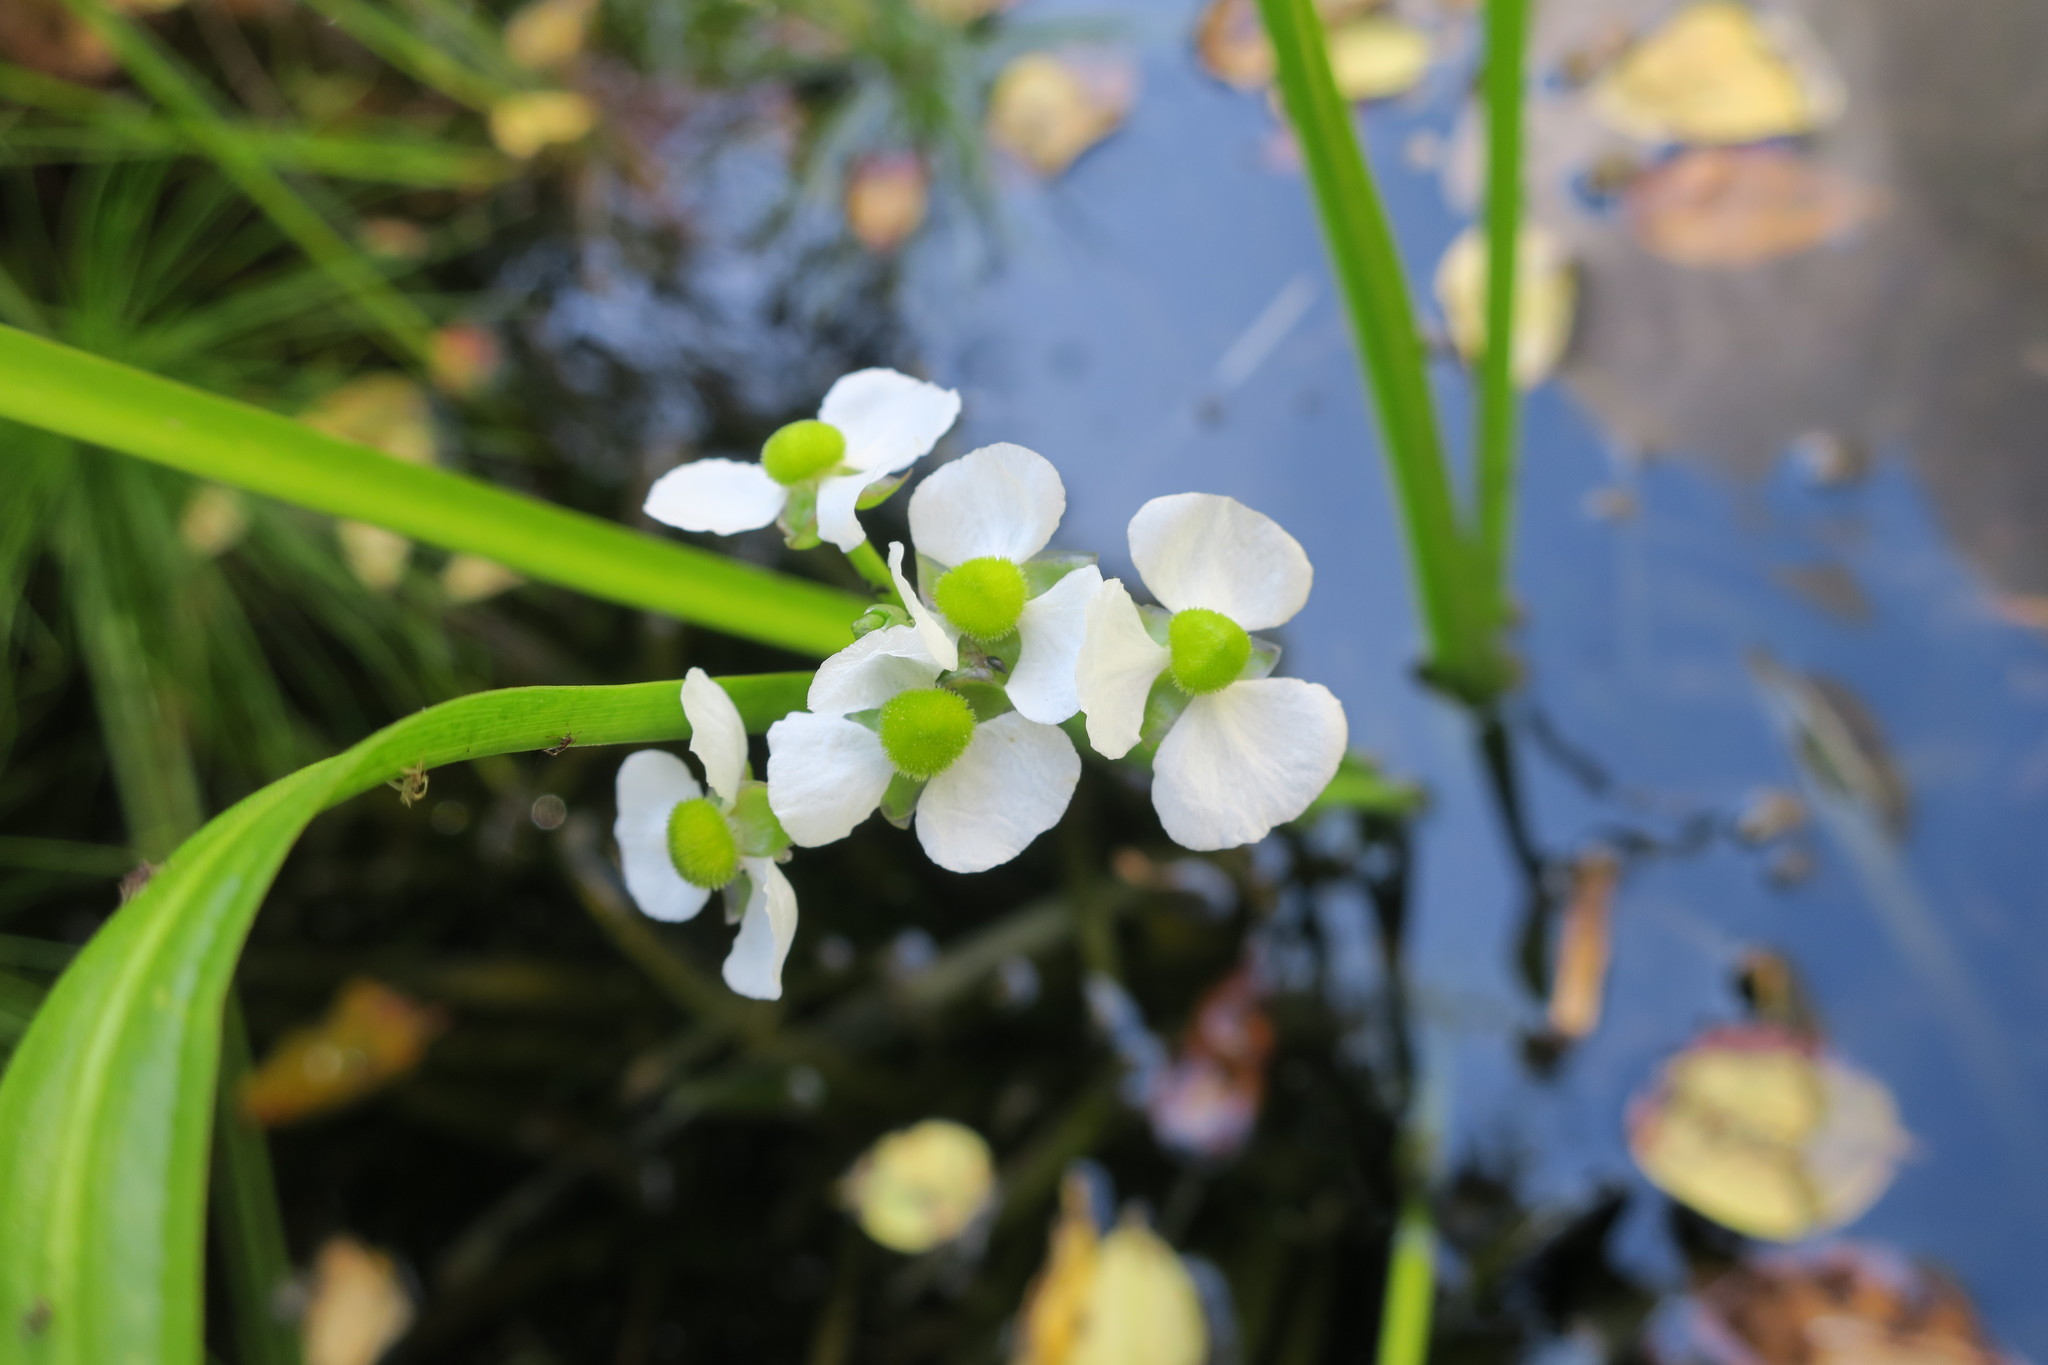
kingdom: Plantae
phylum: Tracheophyta
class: Liliopsida
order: Alismatales
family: Alismataceae
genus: Sagittaria
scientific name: Sagittaria platyphylla
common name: Broad-leaf arrowhead
